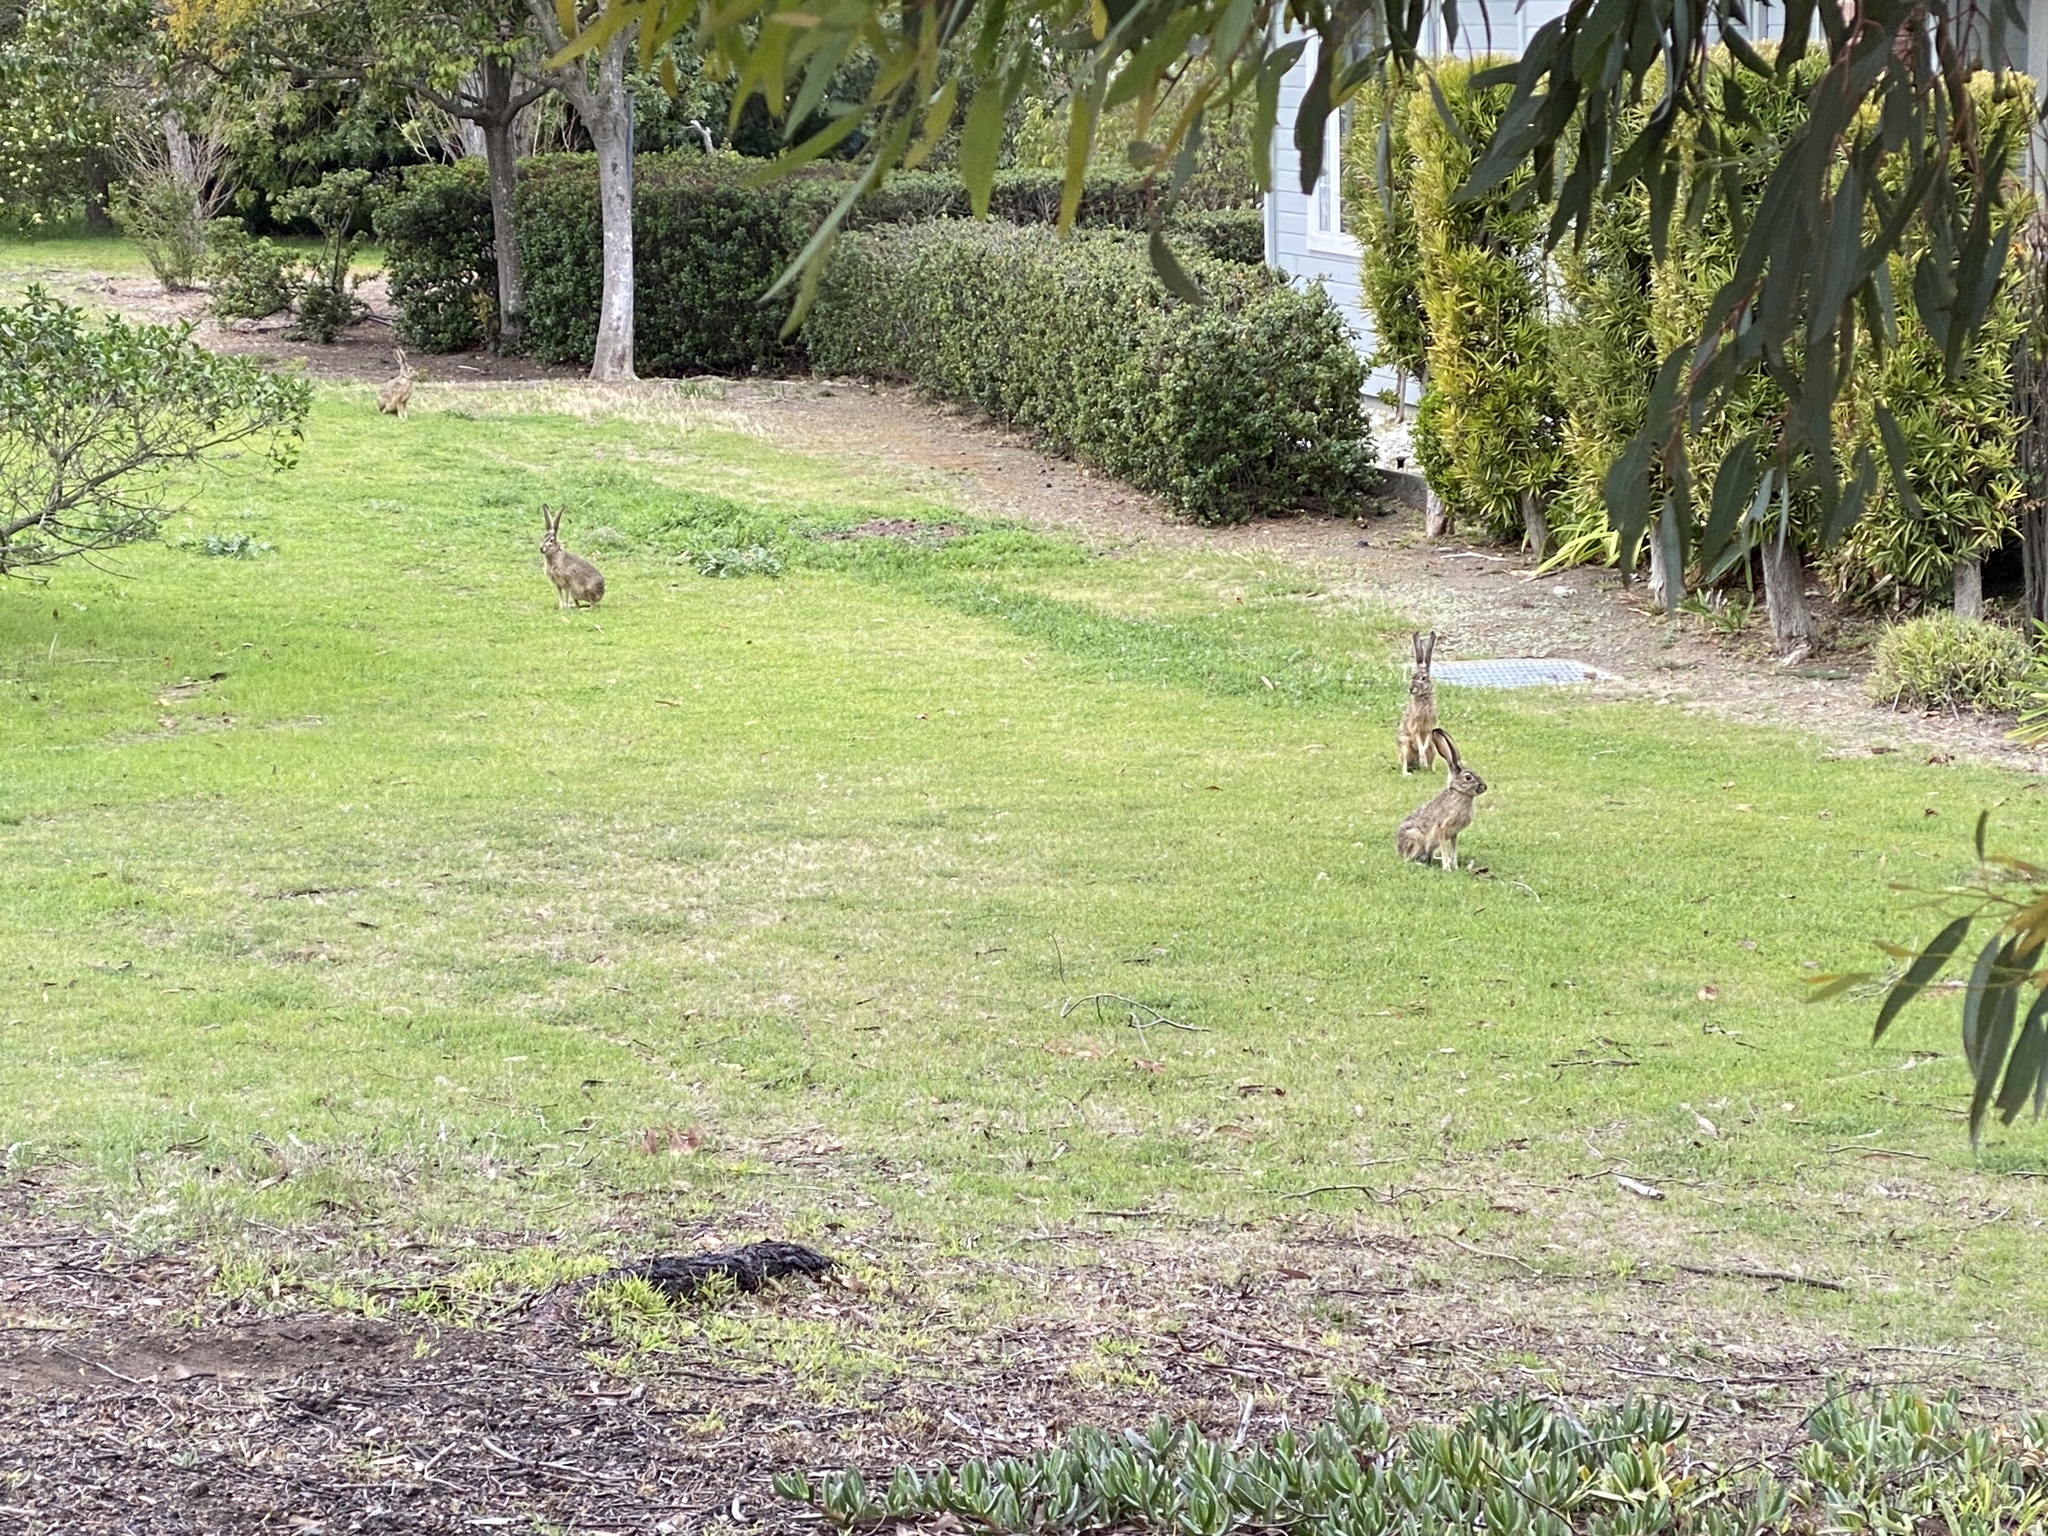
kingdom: Animalia
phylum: Chordata
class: Mammalia
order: Lagomorpha
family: Leporidae
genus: Lepus
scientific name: Lepus californicus
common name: Black-tailed jackrabbit
